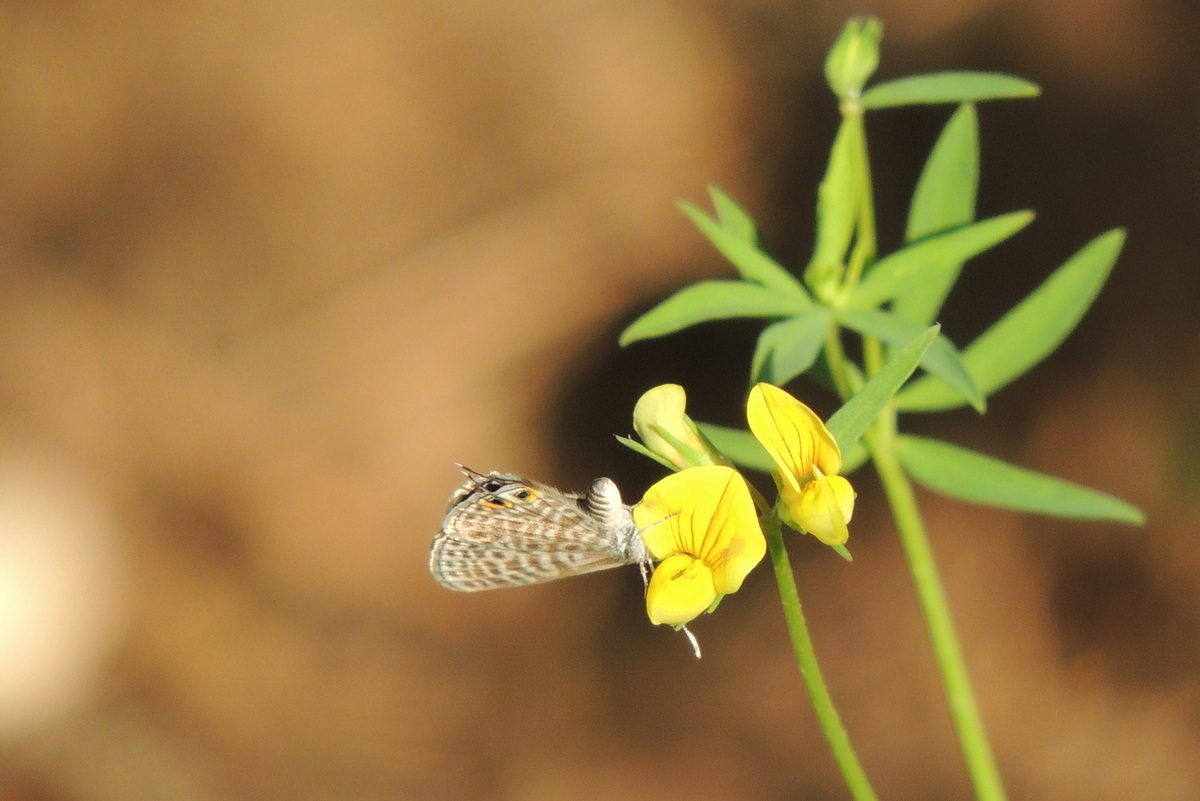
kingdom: Animalia
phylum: Arthropoda
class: Insecta
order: Lepidoptera
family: Lycaenidae
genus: Leptotes
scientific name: Leptotes pirithous
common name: Lang's short-tailed blue
